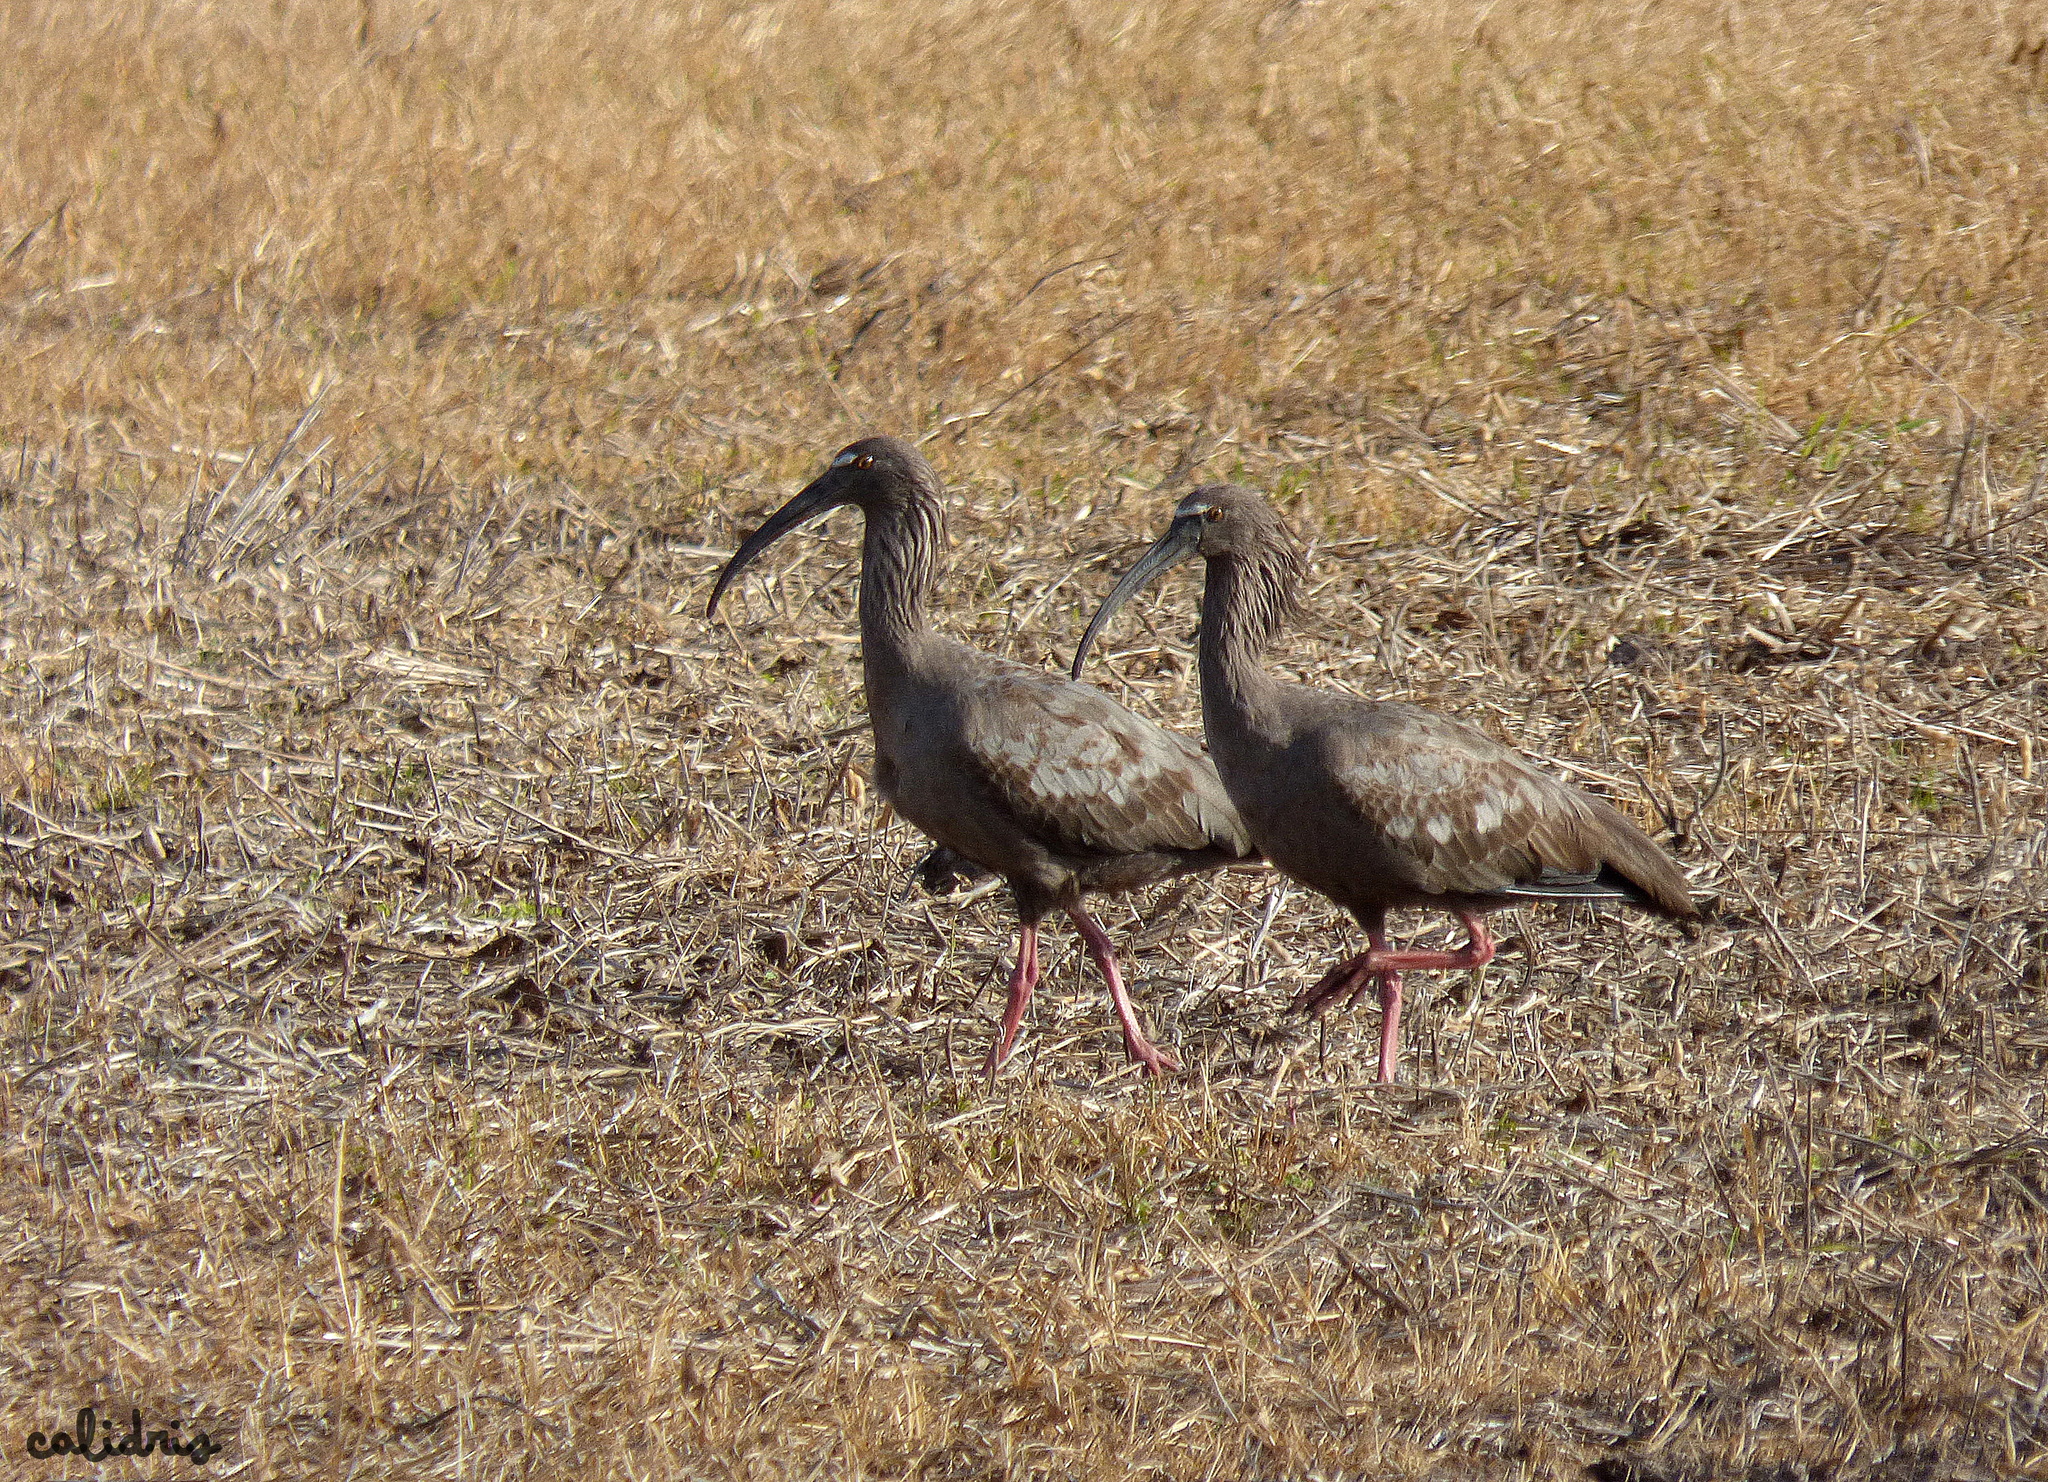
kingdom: Animalia
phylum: Chordata
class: Aves
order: Pelecaniformes
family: Threskiornithidae
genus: Theristicus
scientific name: Theristicus caerulescens
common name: Plumbeous ibis
